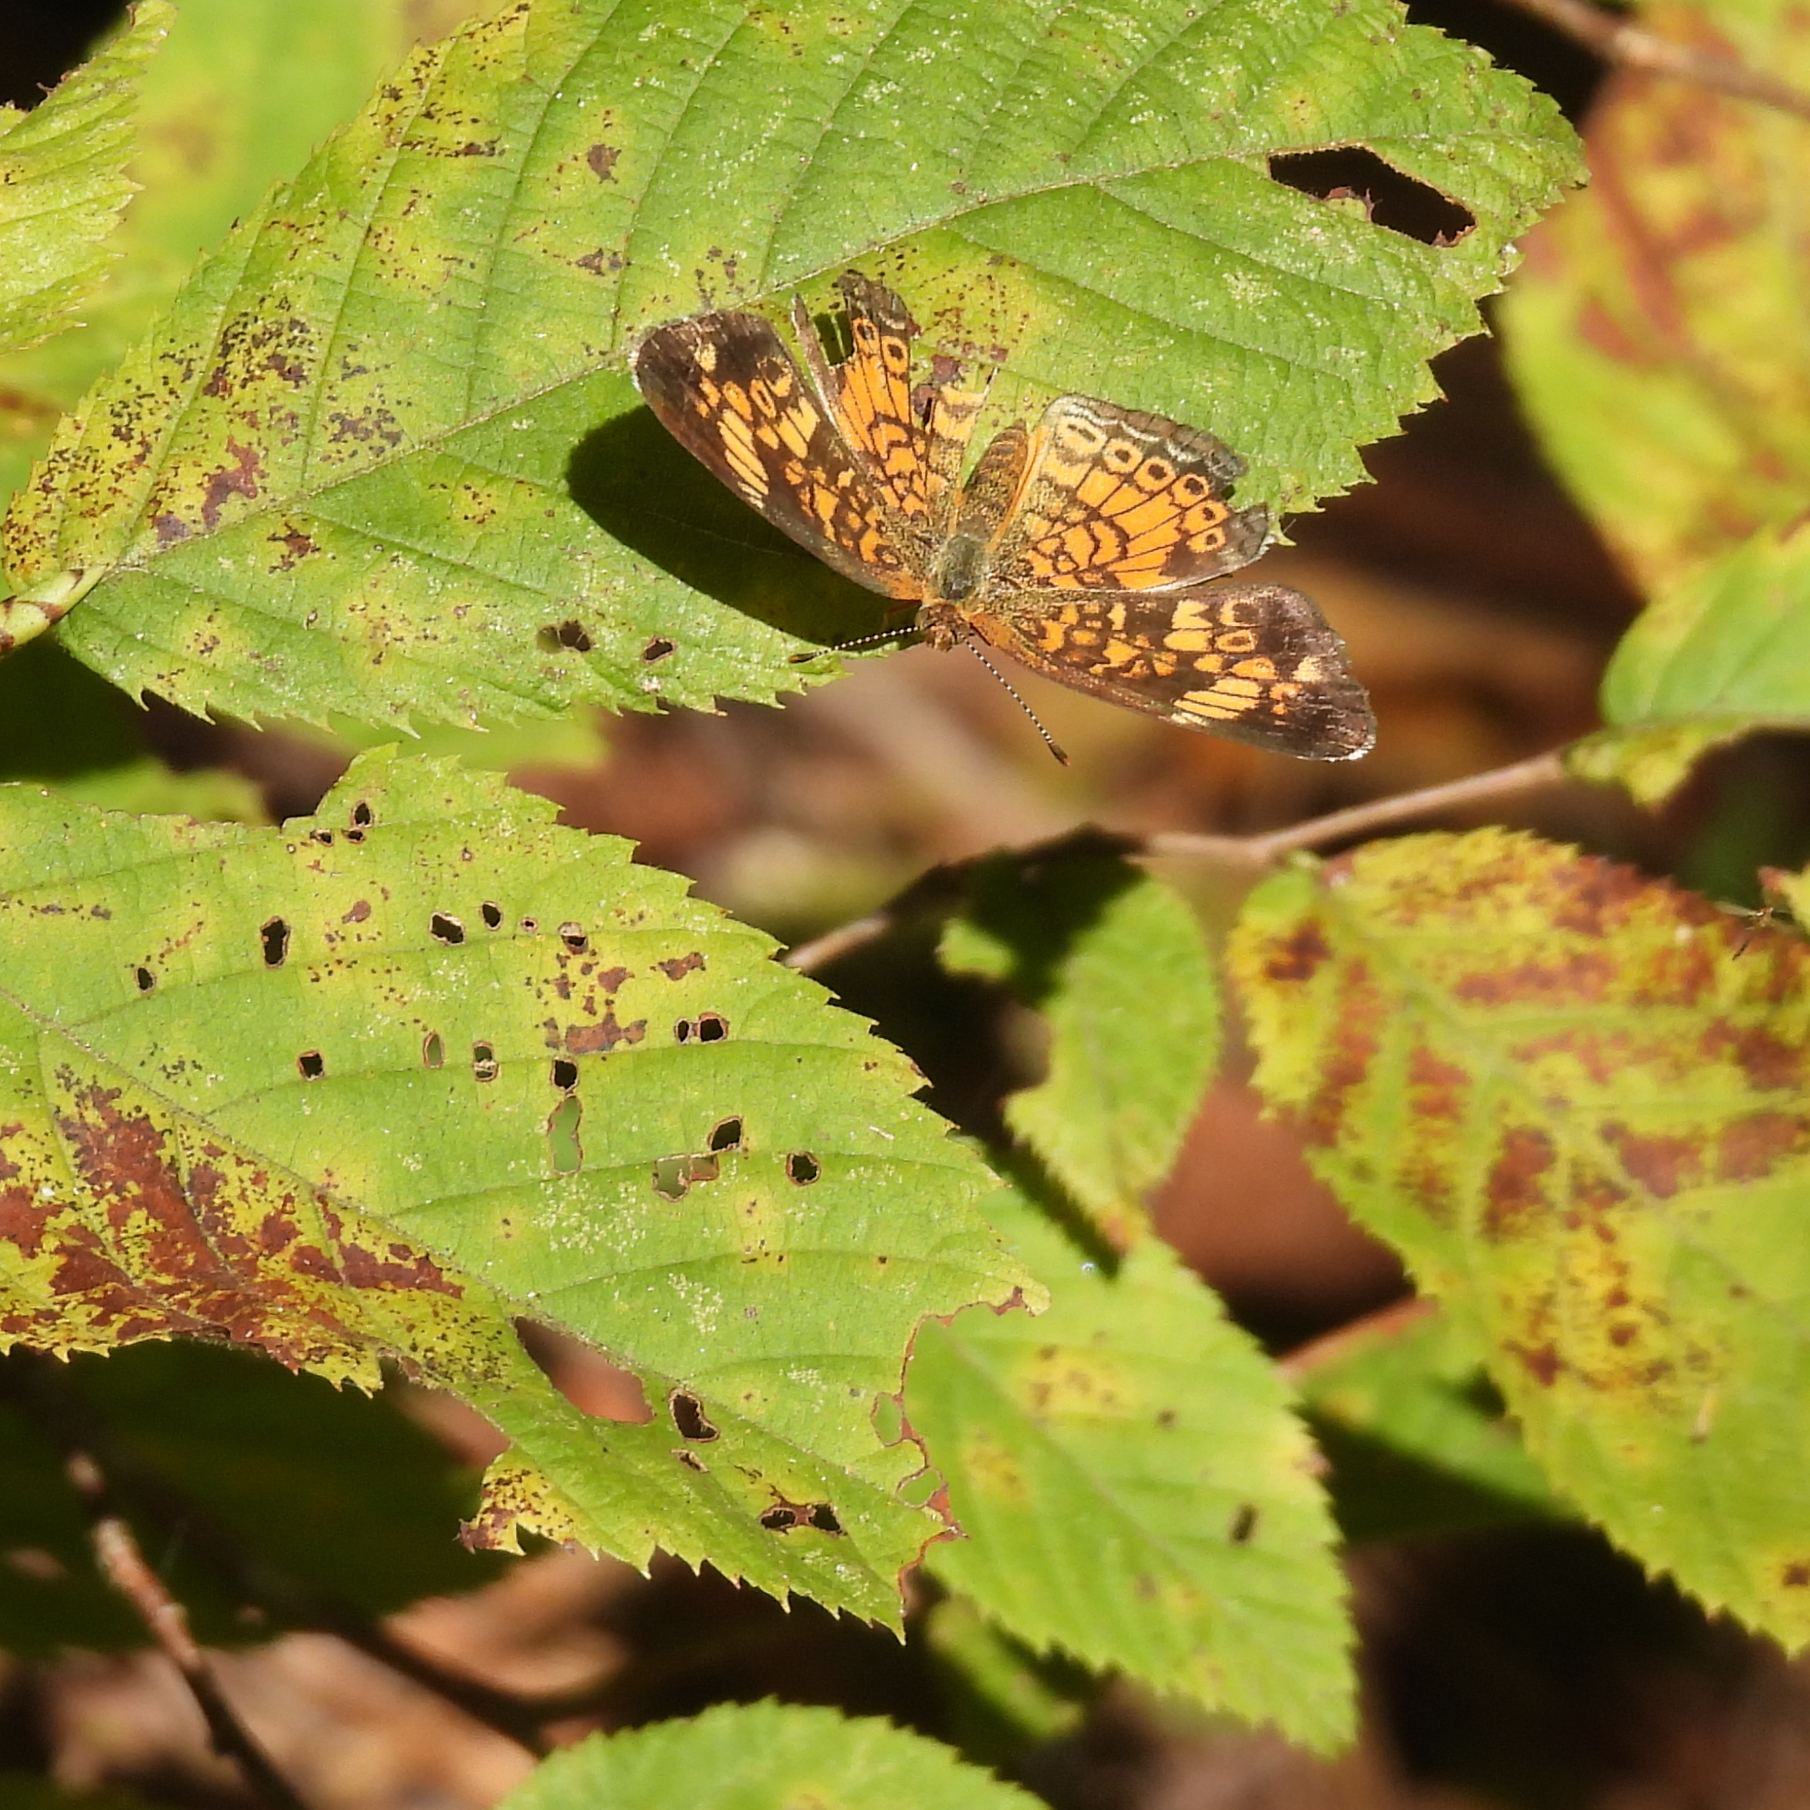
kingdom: Animalia
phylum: Arthropoda
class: Insecta
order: Lepidoptera
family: Nymphalidae
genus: Phyciodes
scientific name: Phyciodes tharos
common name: Pearl crescent
